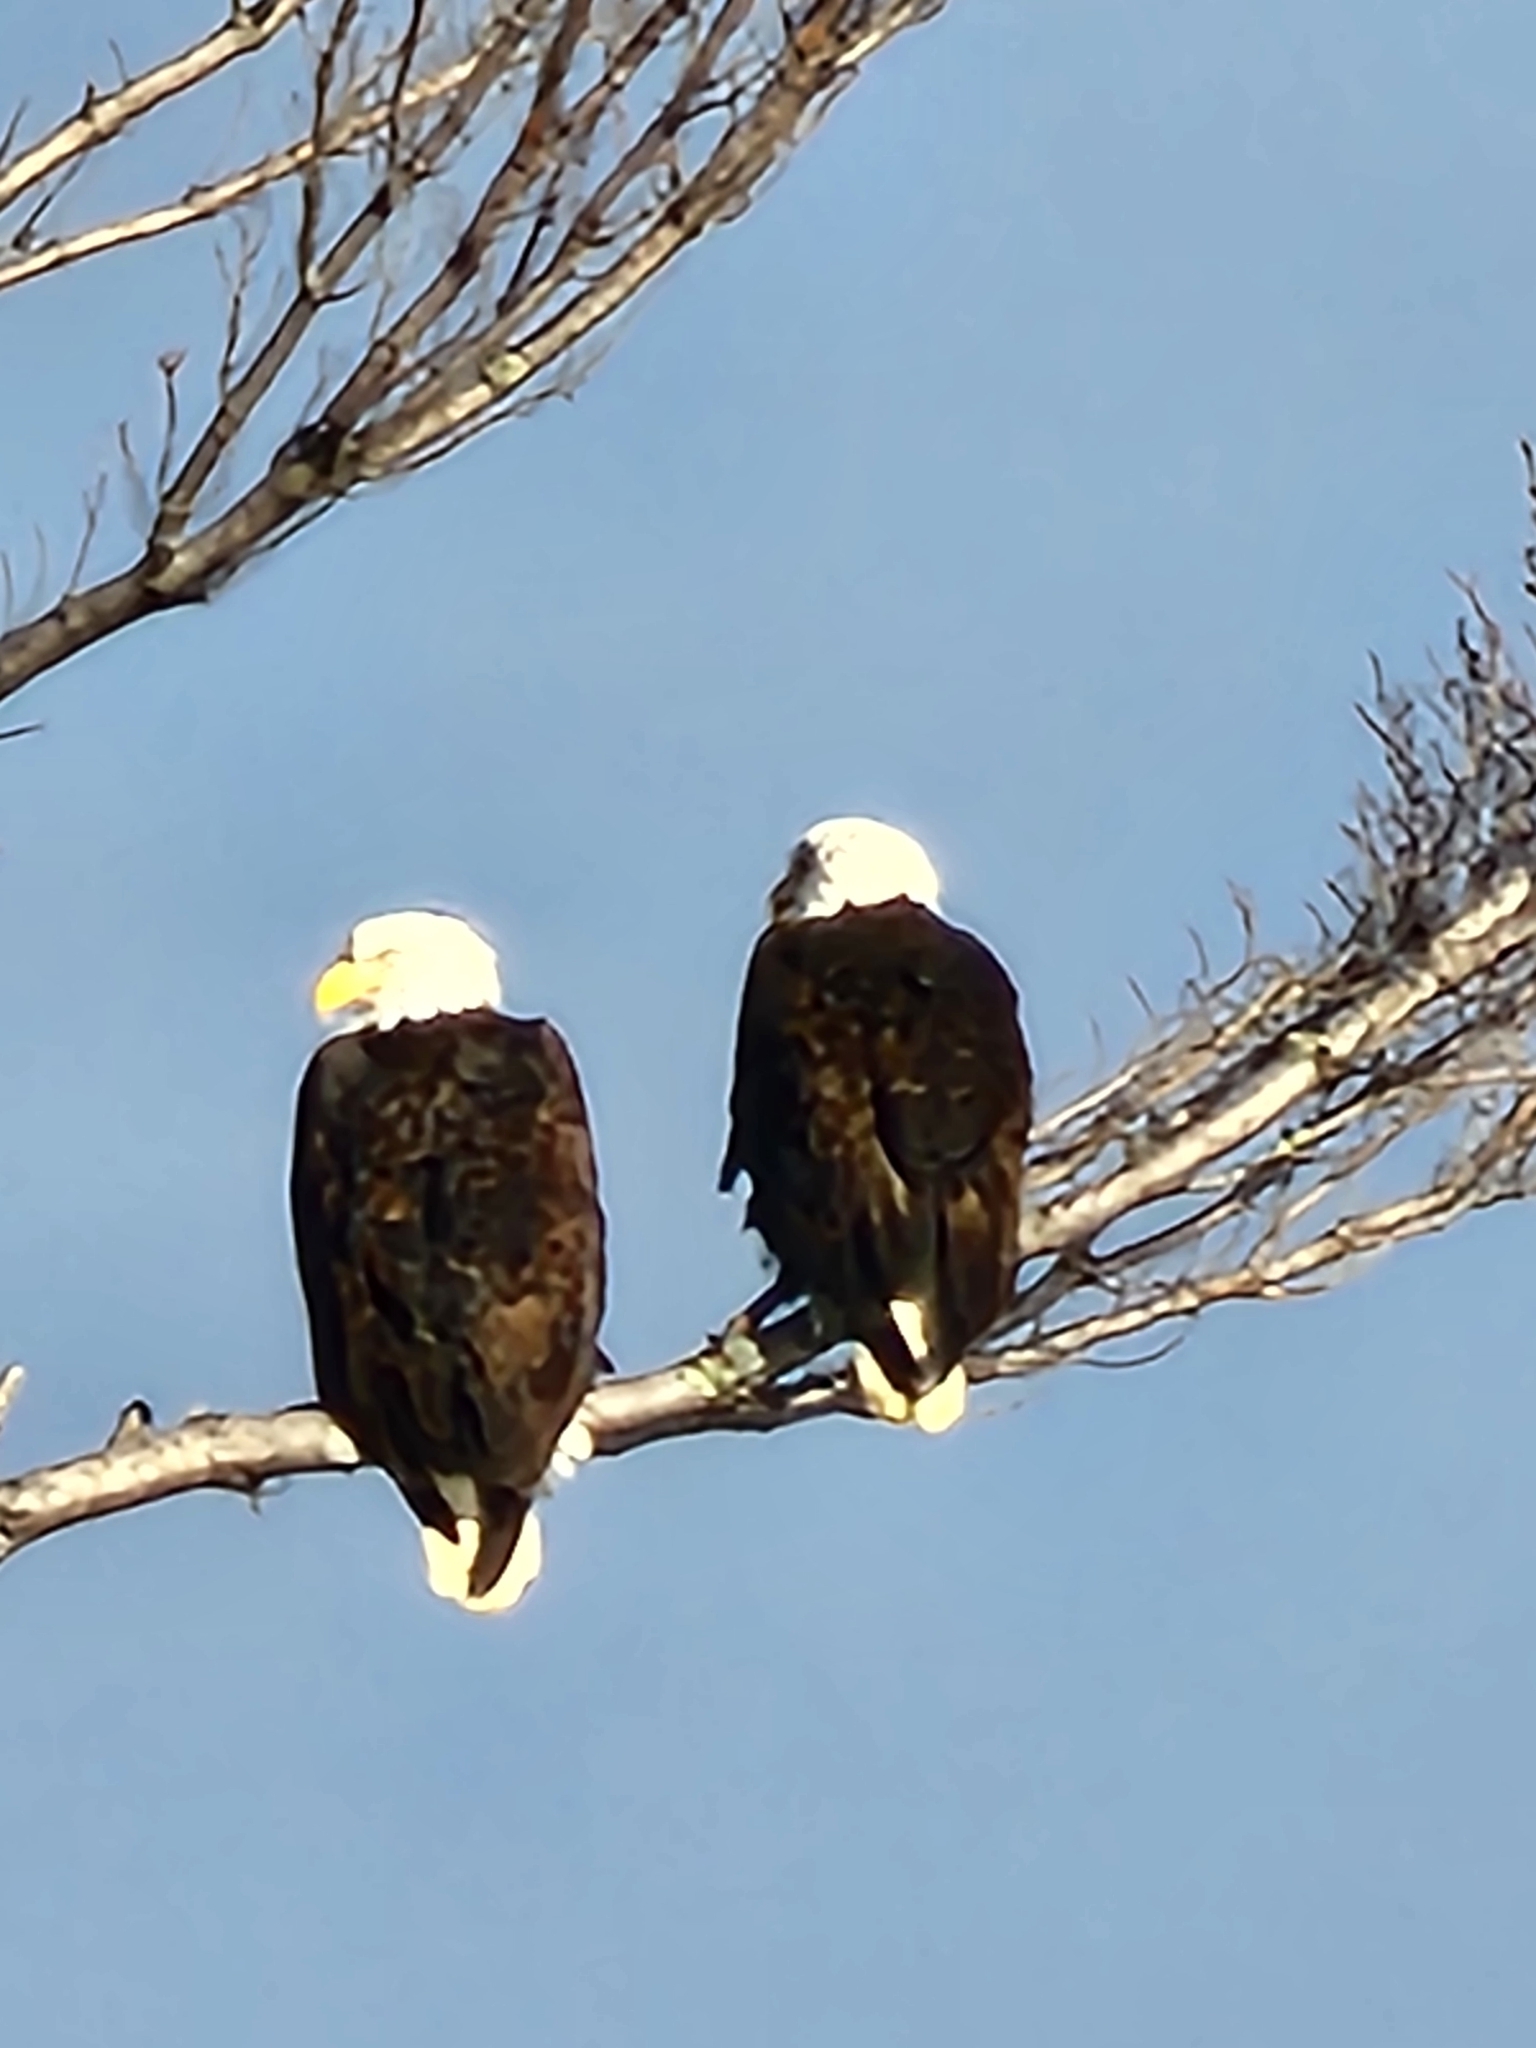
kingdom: Animalia
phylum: Chordata
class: Aves
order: Accipitriformes
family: Accipitridae
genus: Haliaeetus
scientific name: Haliaeetus leucocephalus
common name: Bald eagle
